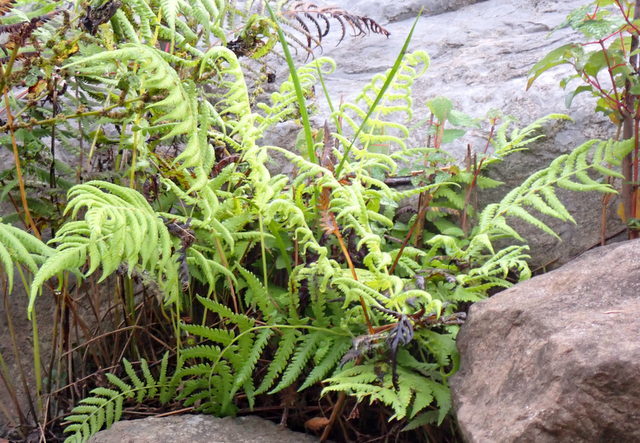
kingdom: Plantae
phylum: Tracheophyta
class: Polypodiopsida
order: Polypodiales
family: Thelypteridaceae
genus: Pelazoneuron
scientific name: Pelazoneuron kunthii
